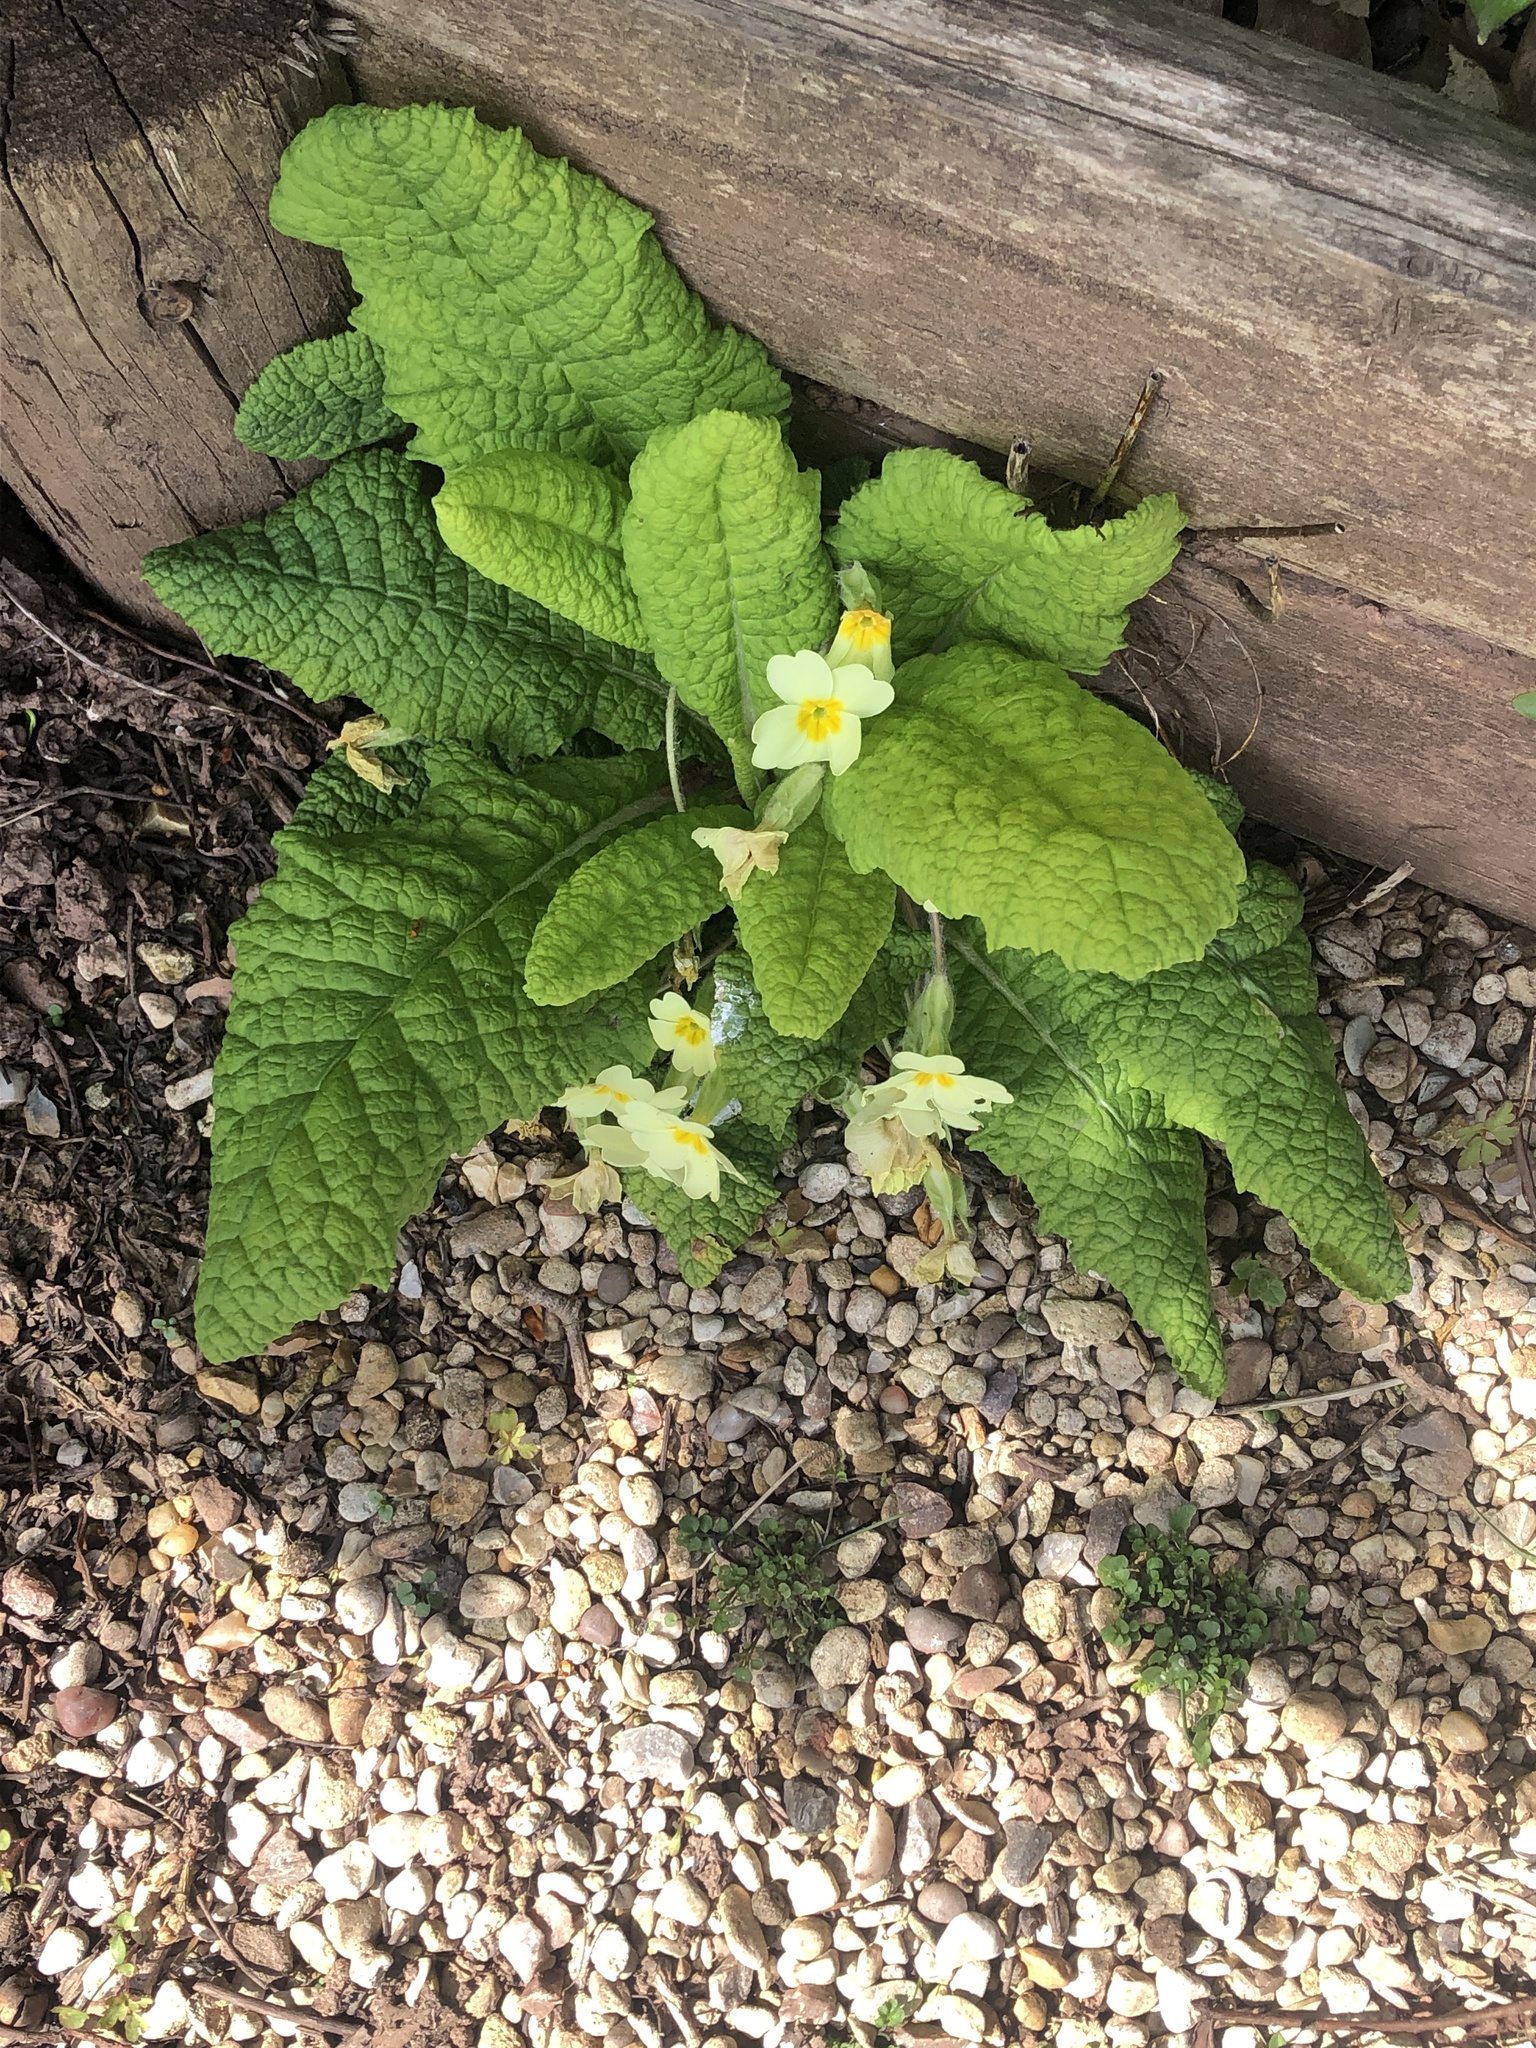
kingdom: Plantae
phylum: Tracheophyta
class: Magnoliopsida
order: Ericales
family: Primulaceae
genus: Primula
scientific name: Primula vulgaris
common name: Primrose
